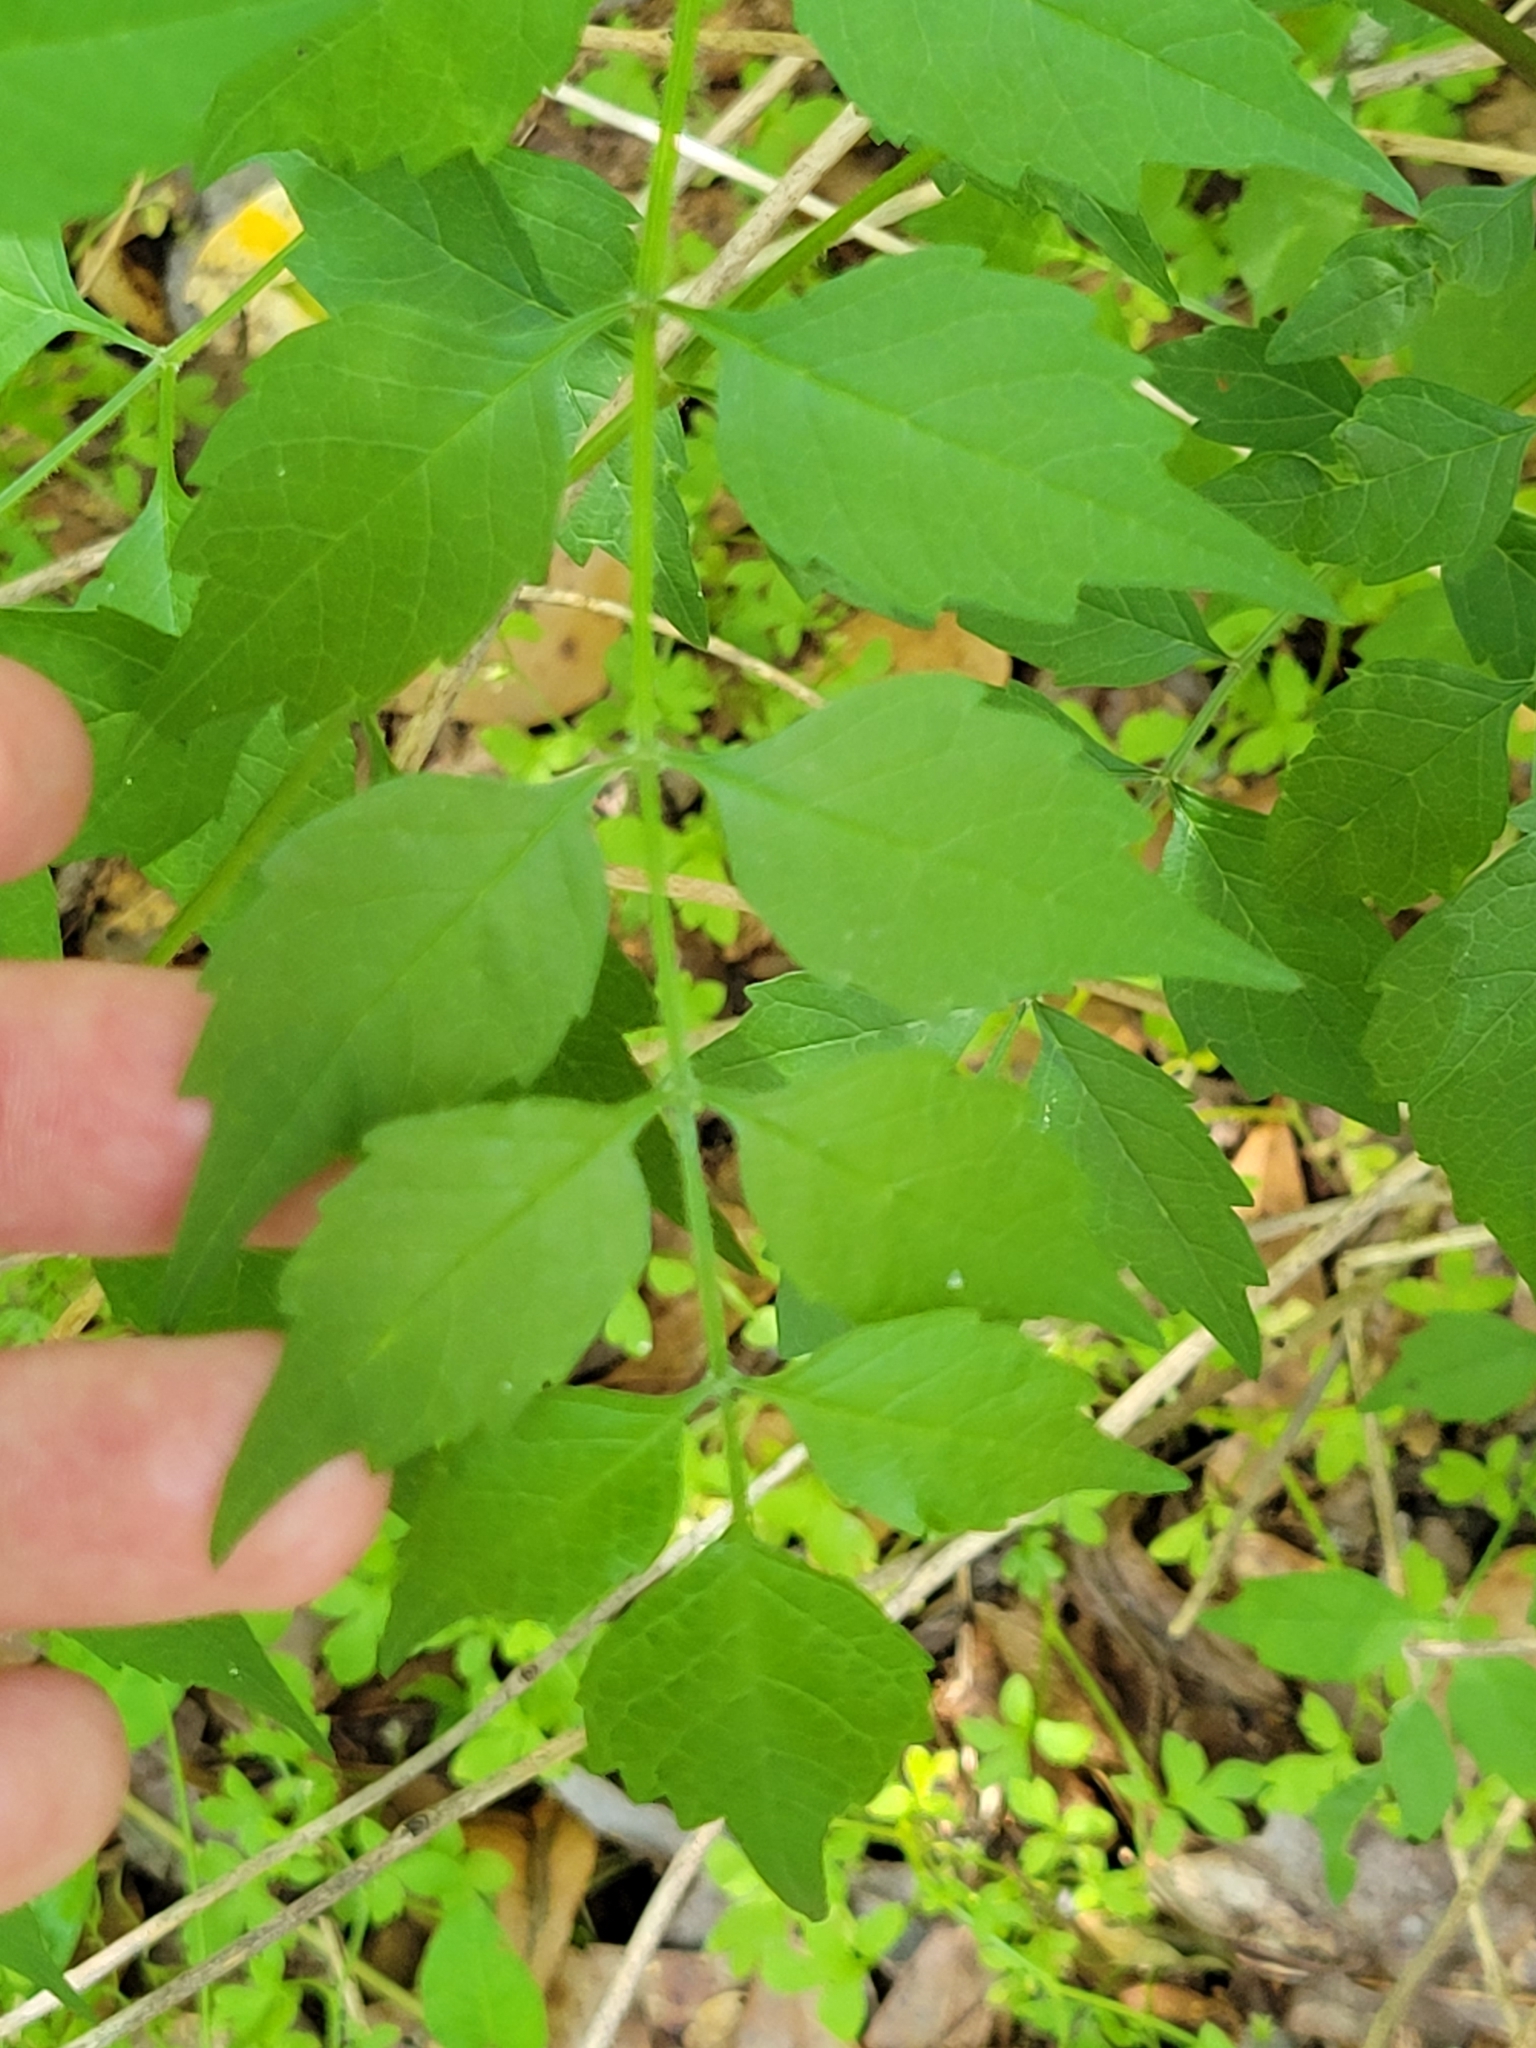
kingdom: Plantae
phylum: Tracheophyta
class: Magnoliopsida
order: Lamiales
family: Bignoniaceae
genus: Campsis
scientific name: Campsis radicans
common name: Trumpet-creeper
